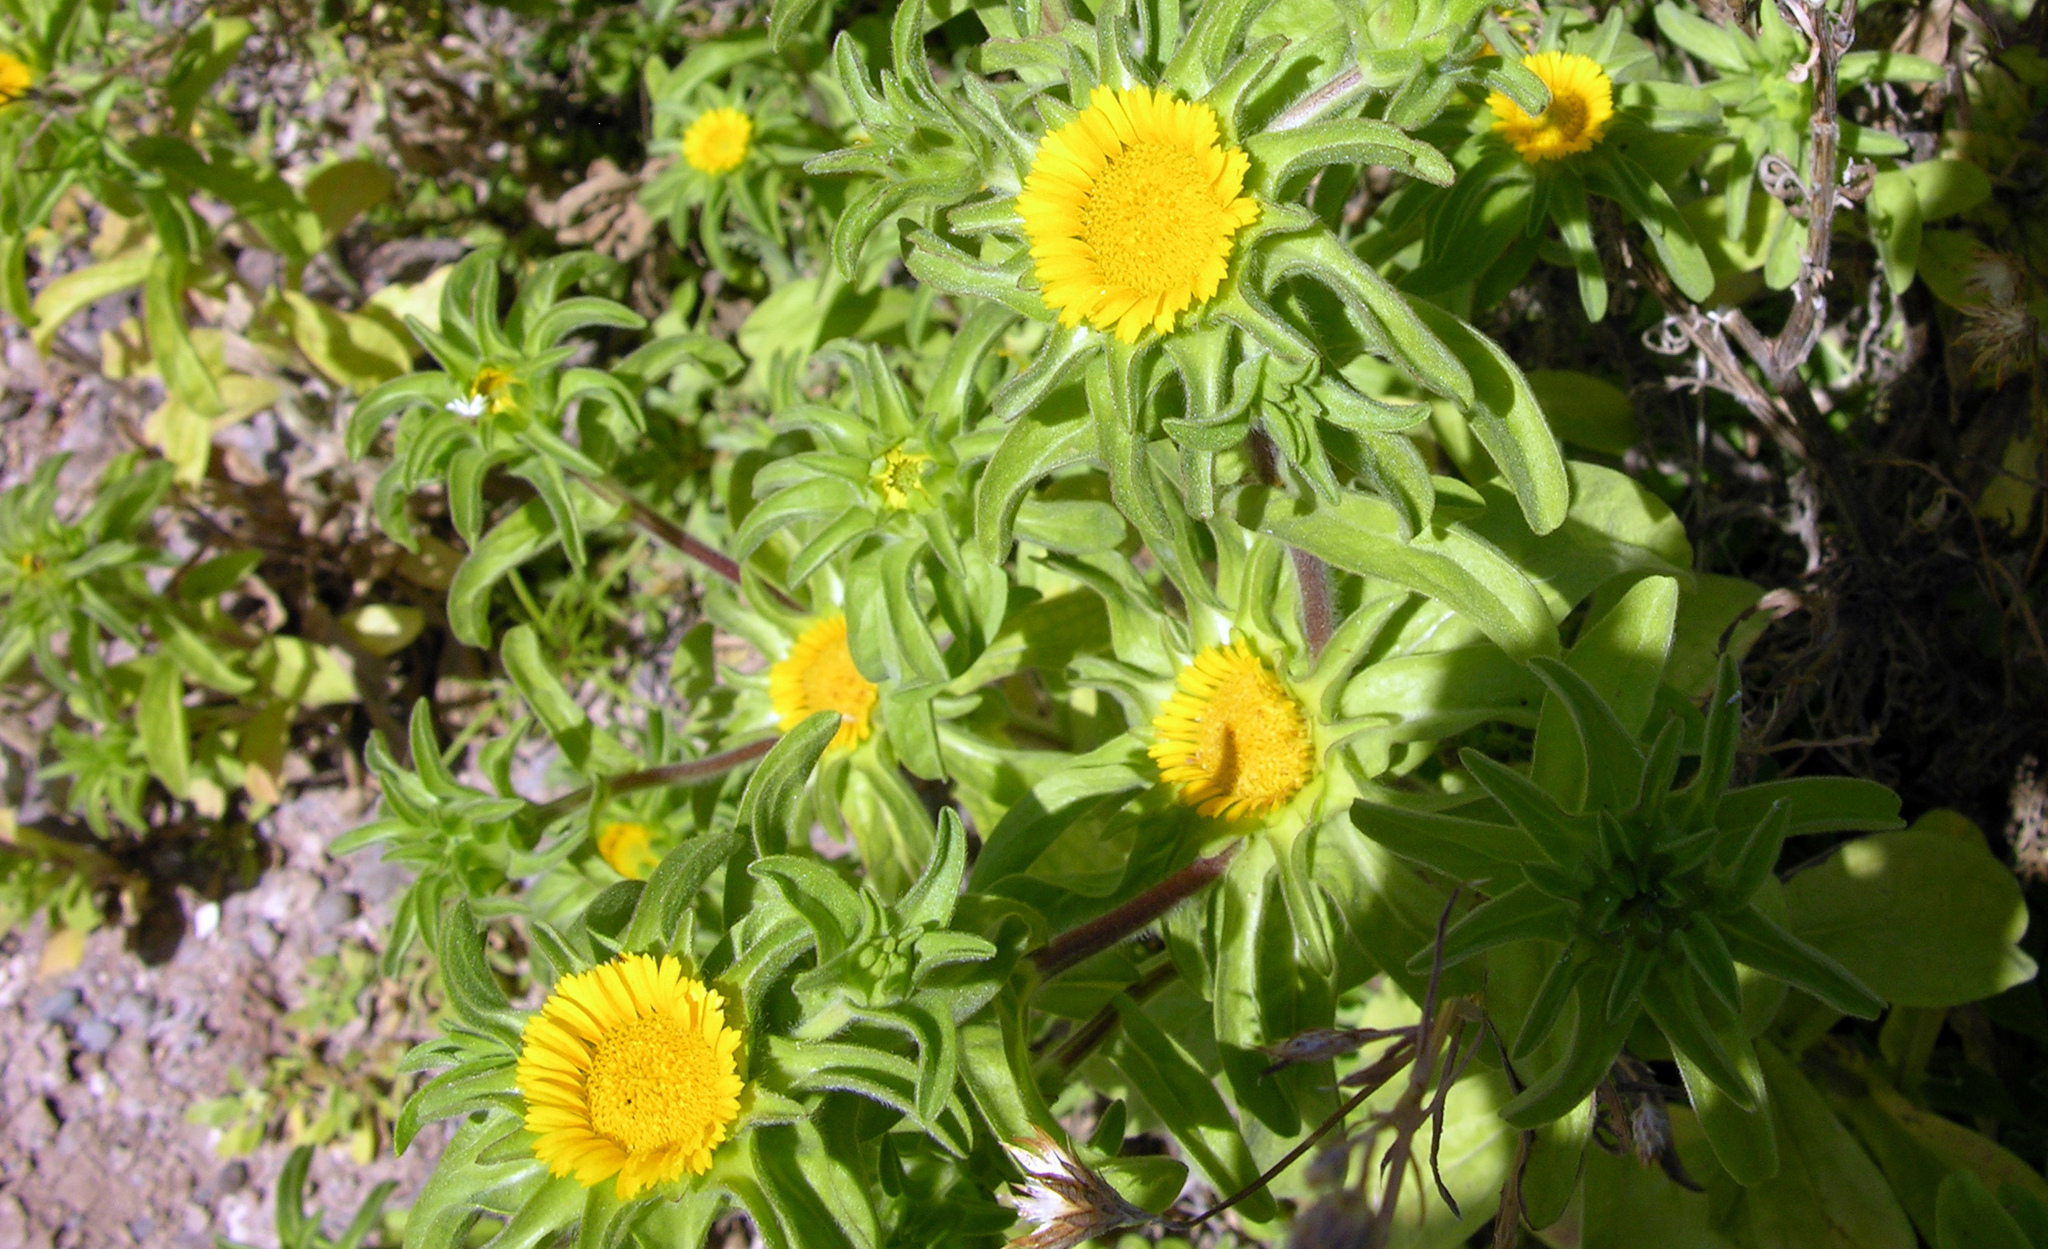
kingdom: Plantae
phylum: Tracheophyta
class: Magnoliopsida
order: Asterales
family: Asteraceae
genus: Asteriscus
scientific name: Asteriscus aquaticus
